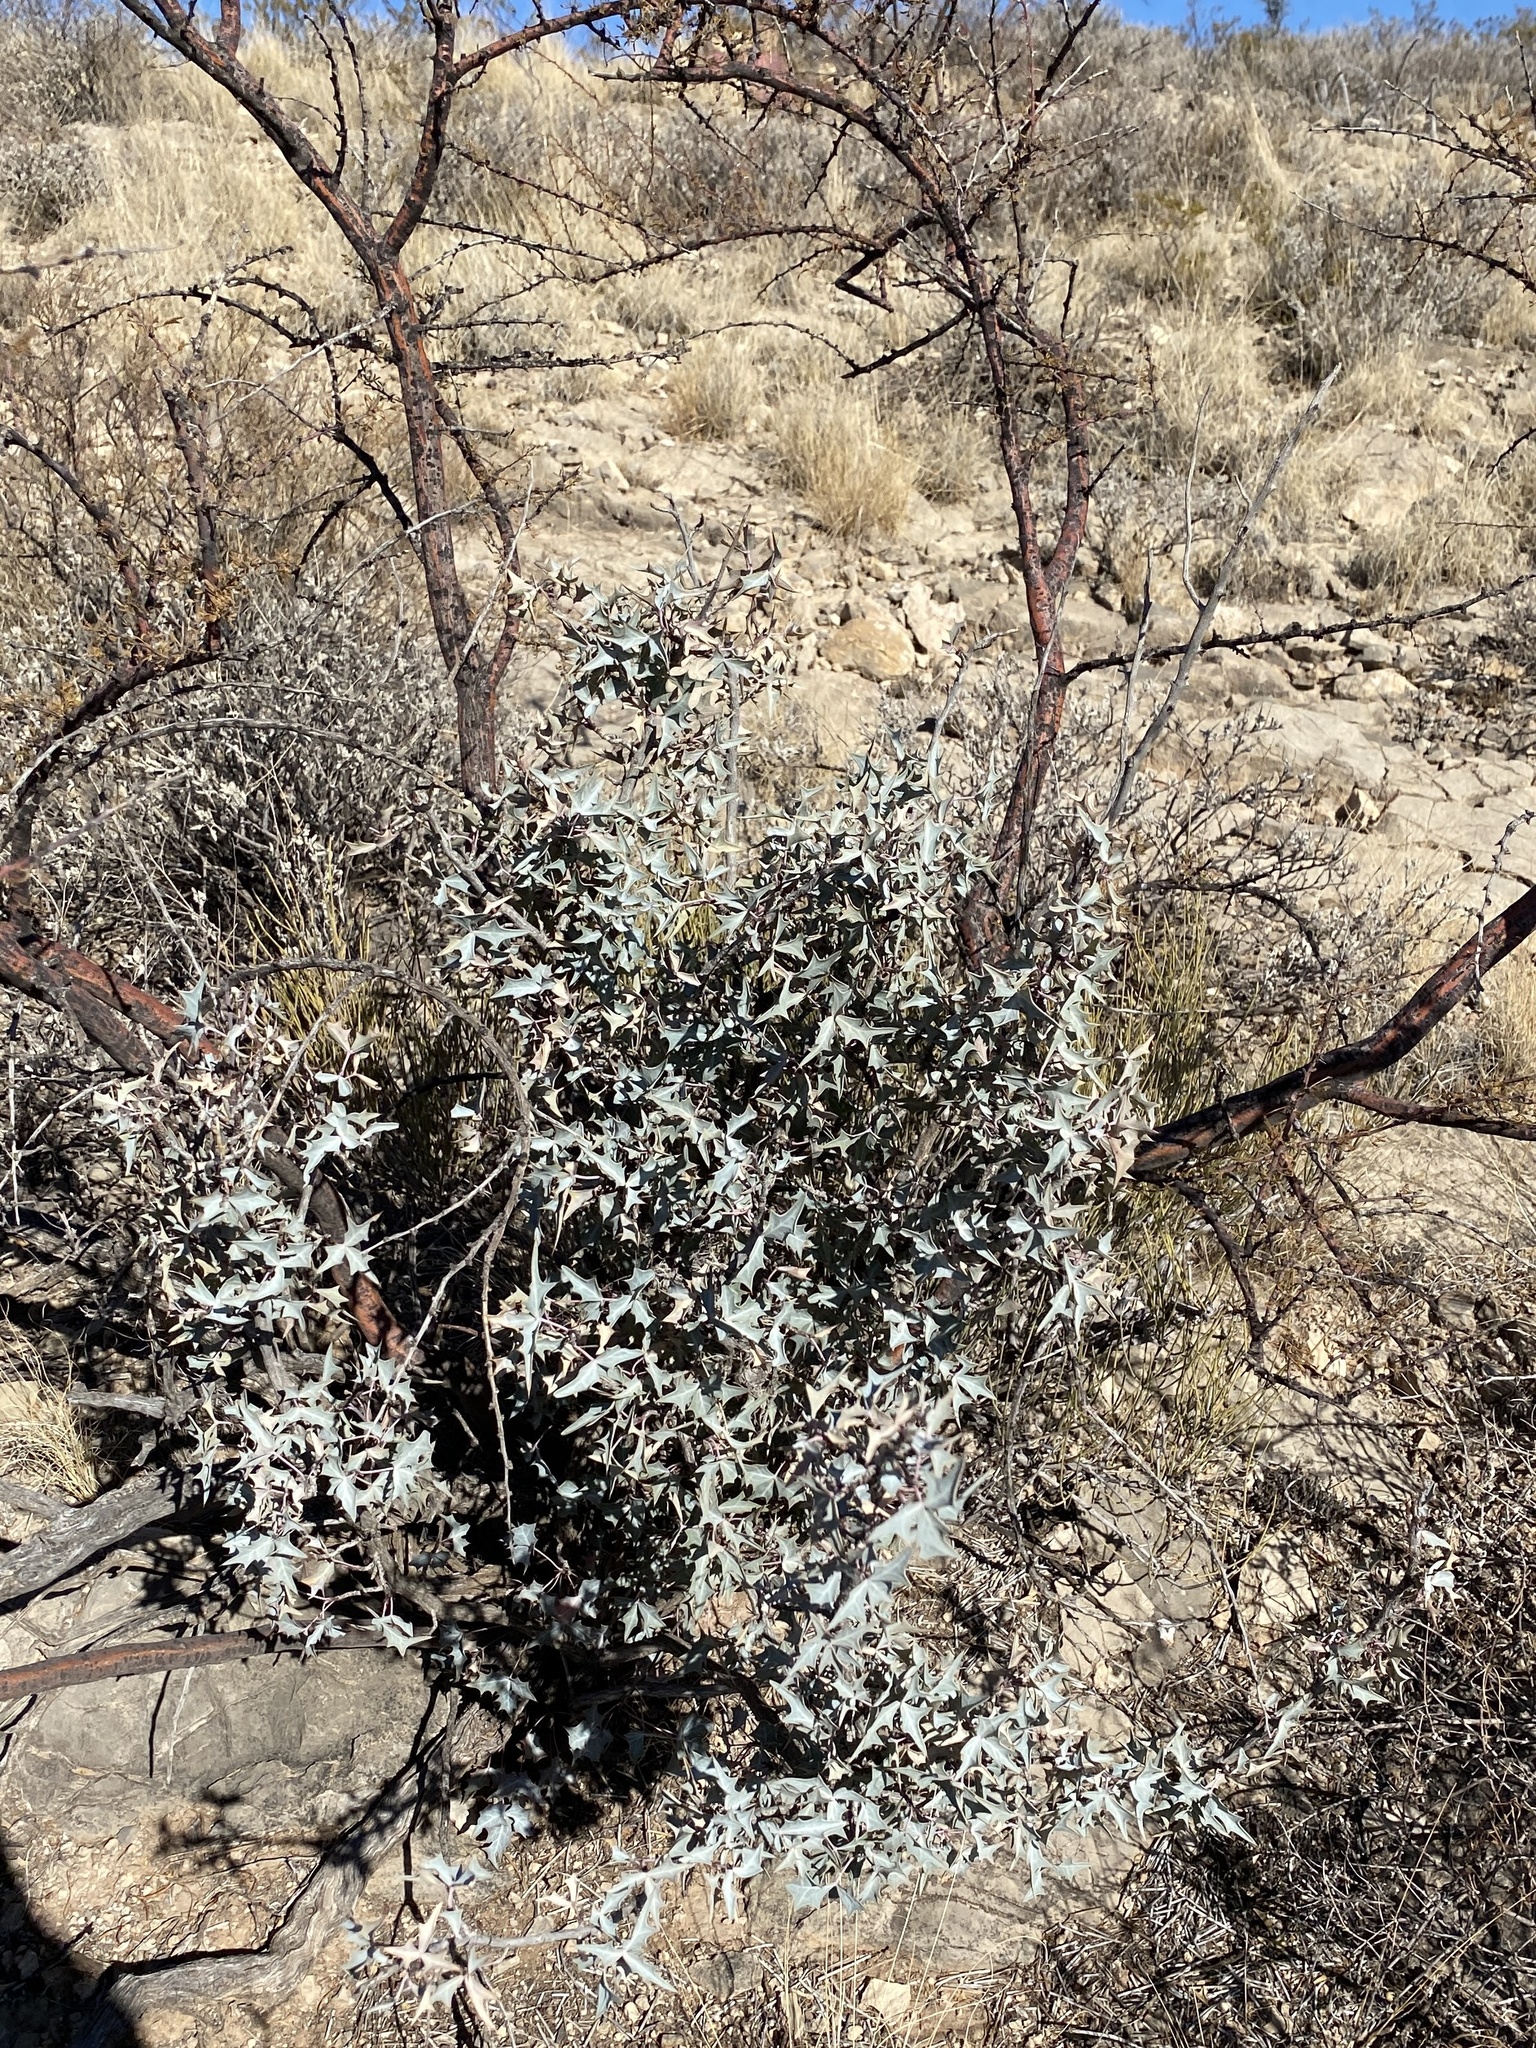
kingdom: Plantae
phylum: Tracheophyta
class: Magnoliopsida
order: Ranunculales
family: Berberidaceae
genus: Alloberberis
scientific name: Alloberberis trifoliolata
